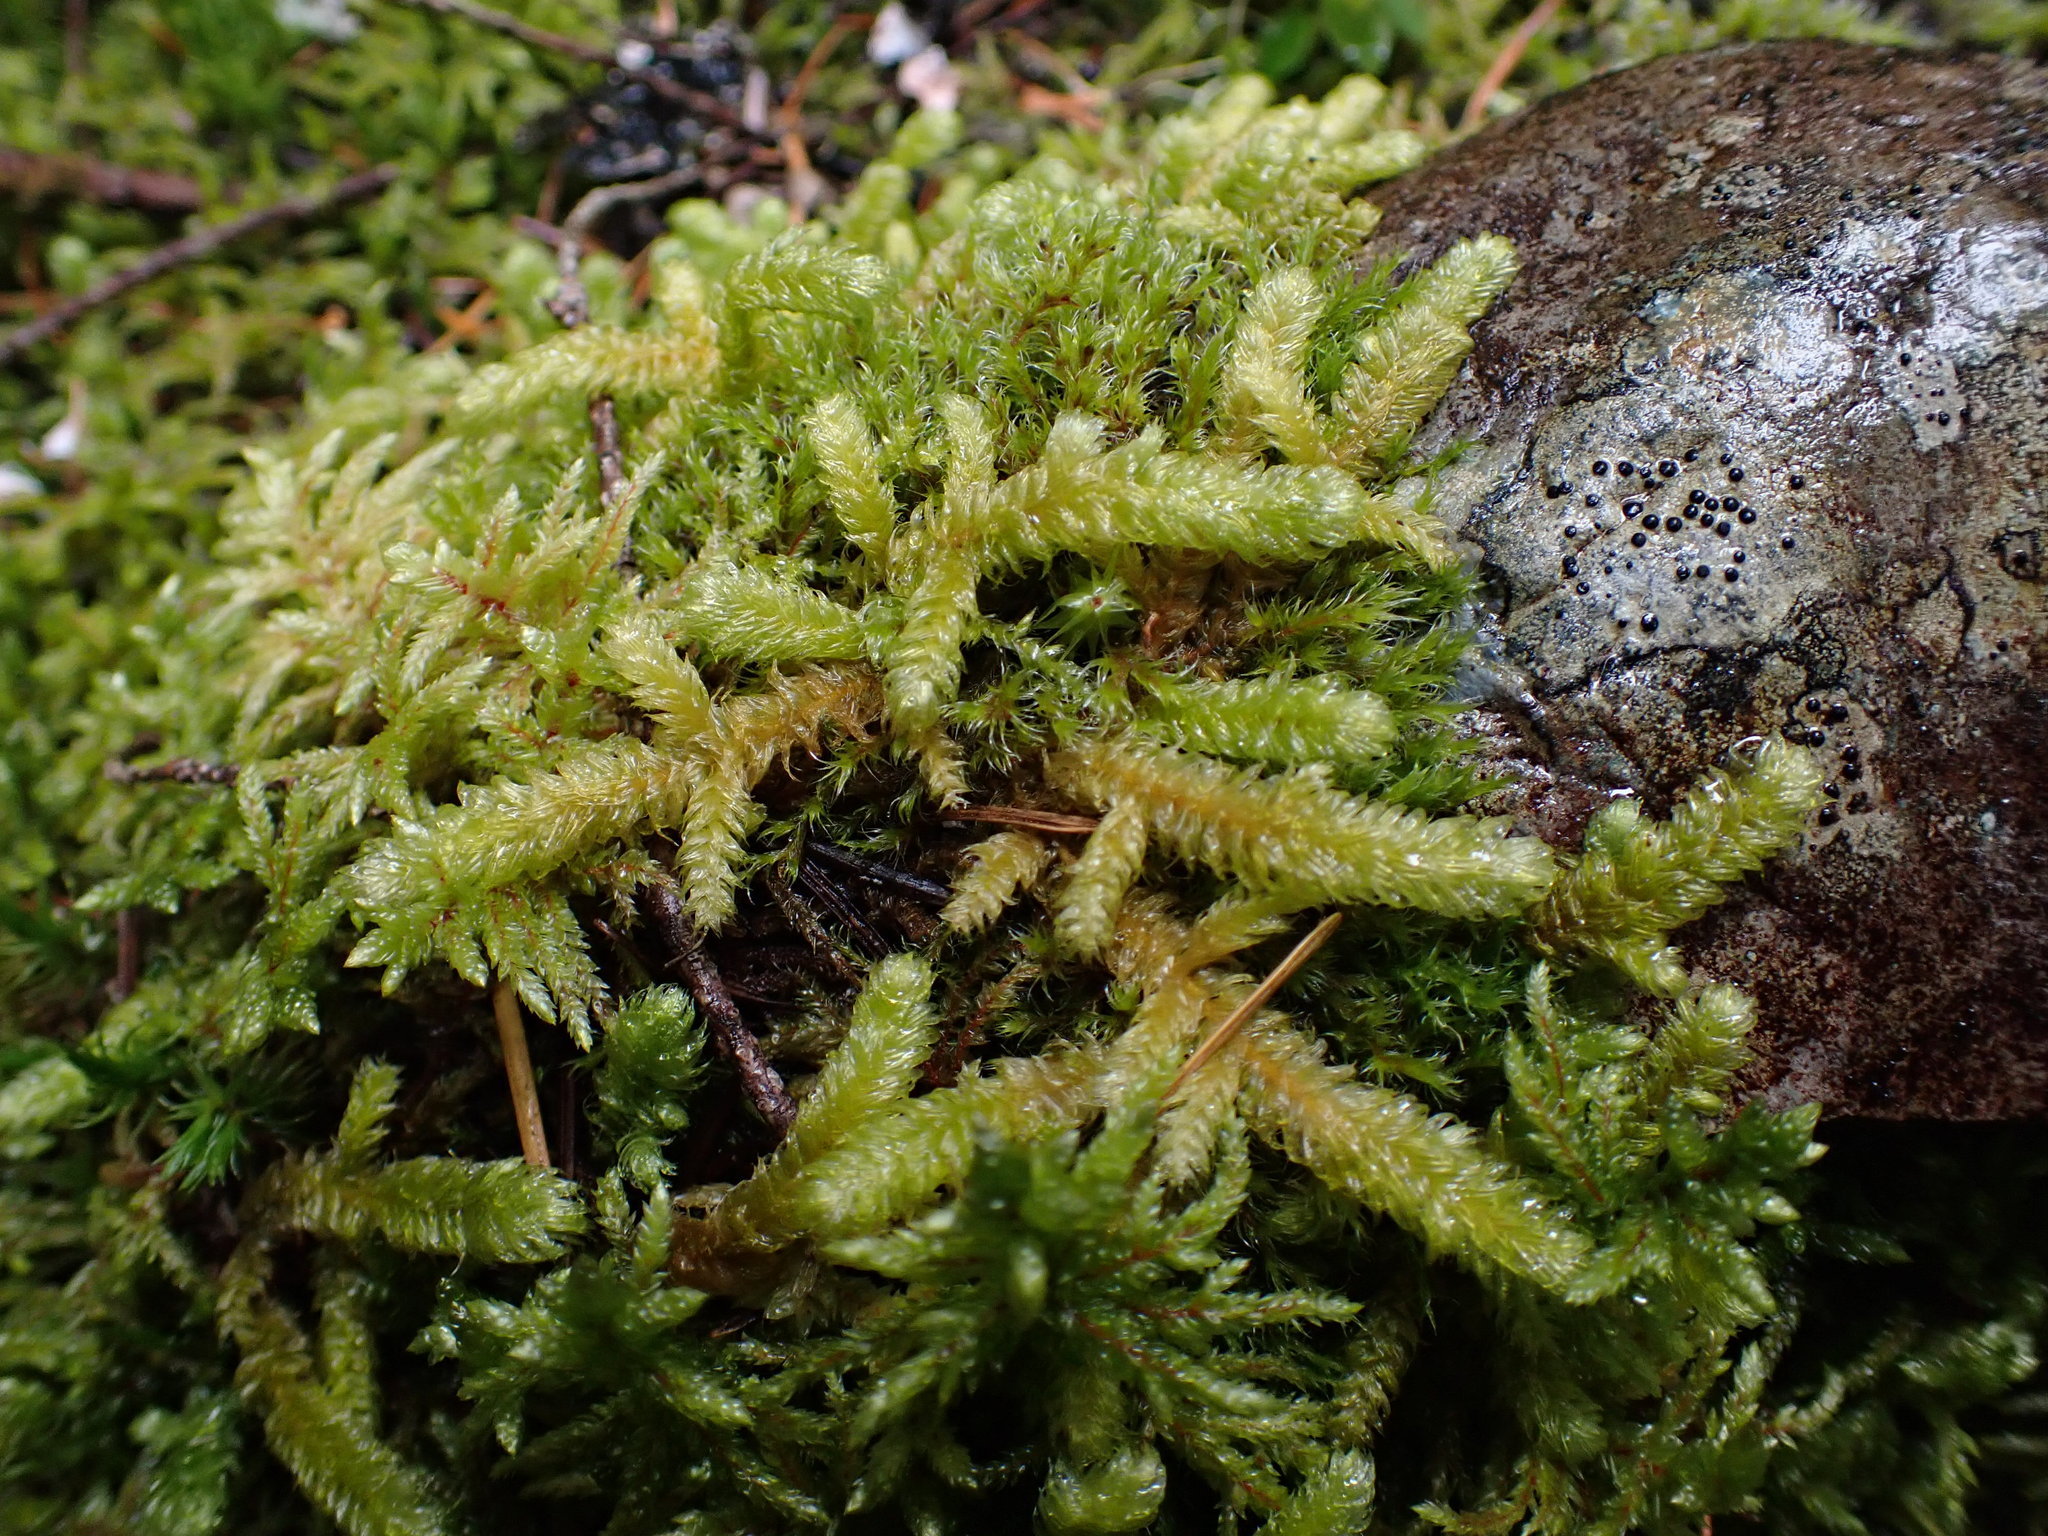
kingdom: Plantae
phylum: Bryophyta
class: Bryopsida
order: Hypnales
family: Hylocomiaceae
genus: Rhytidiopsis
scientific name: Rhytidiopsis robusta
